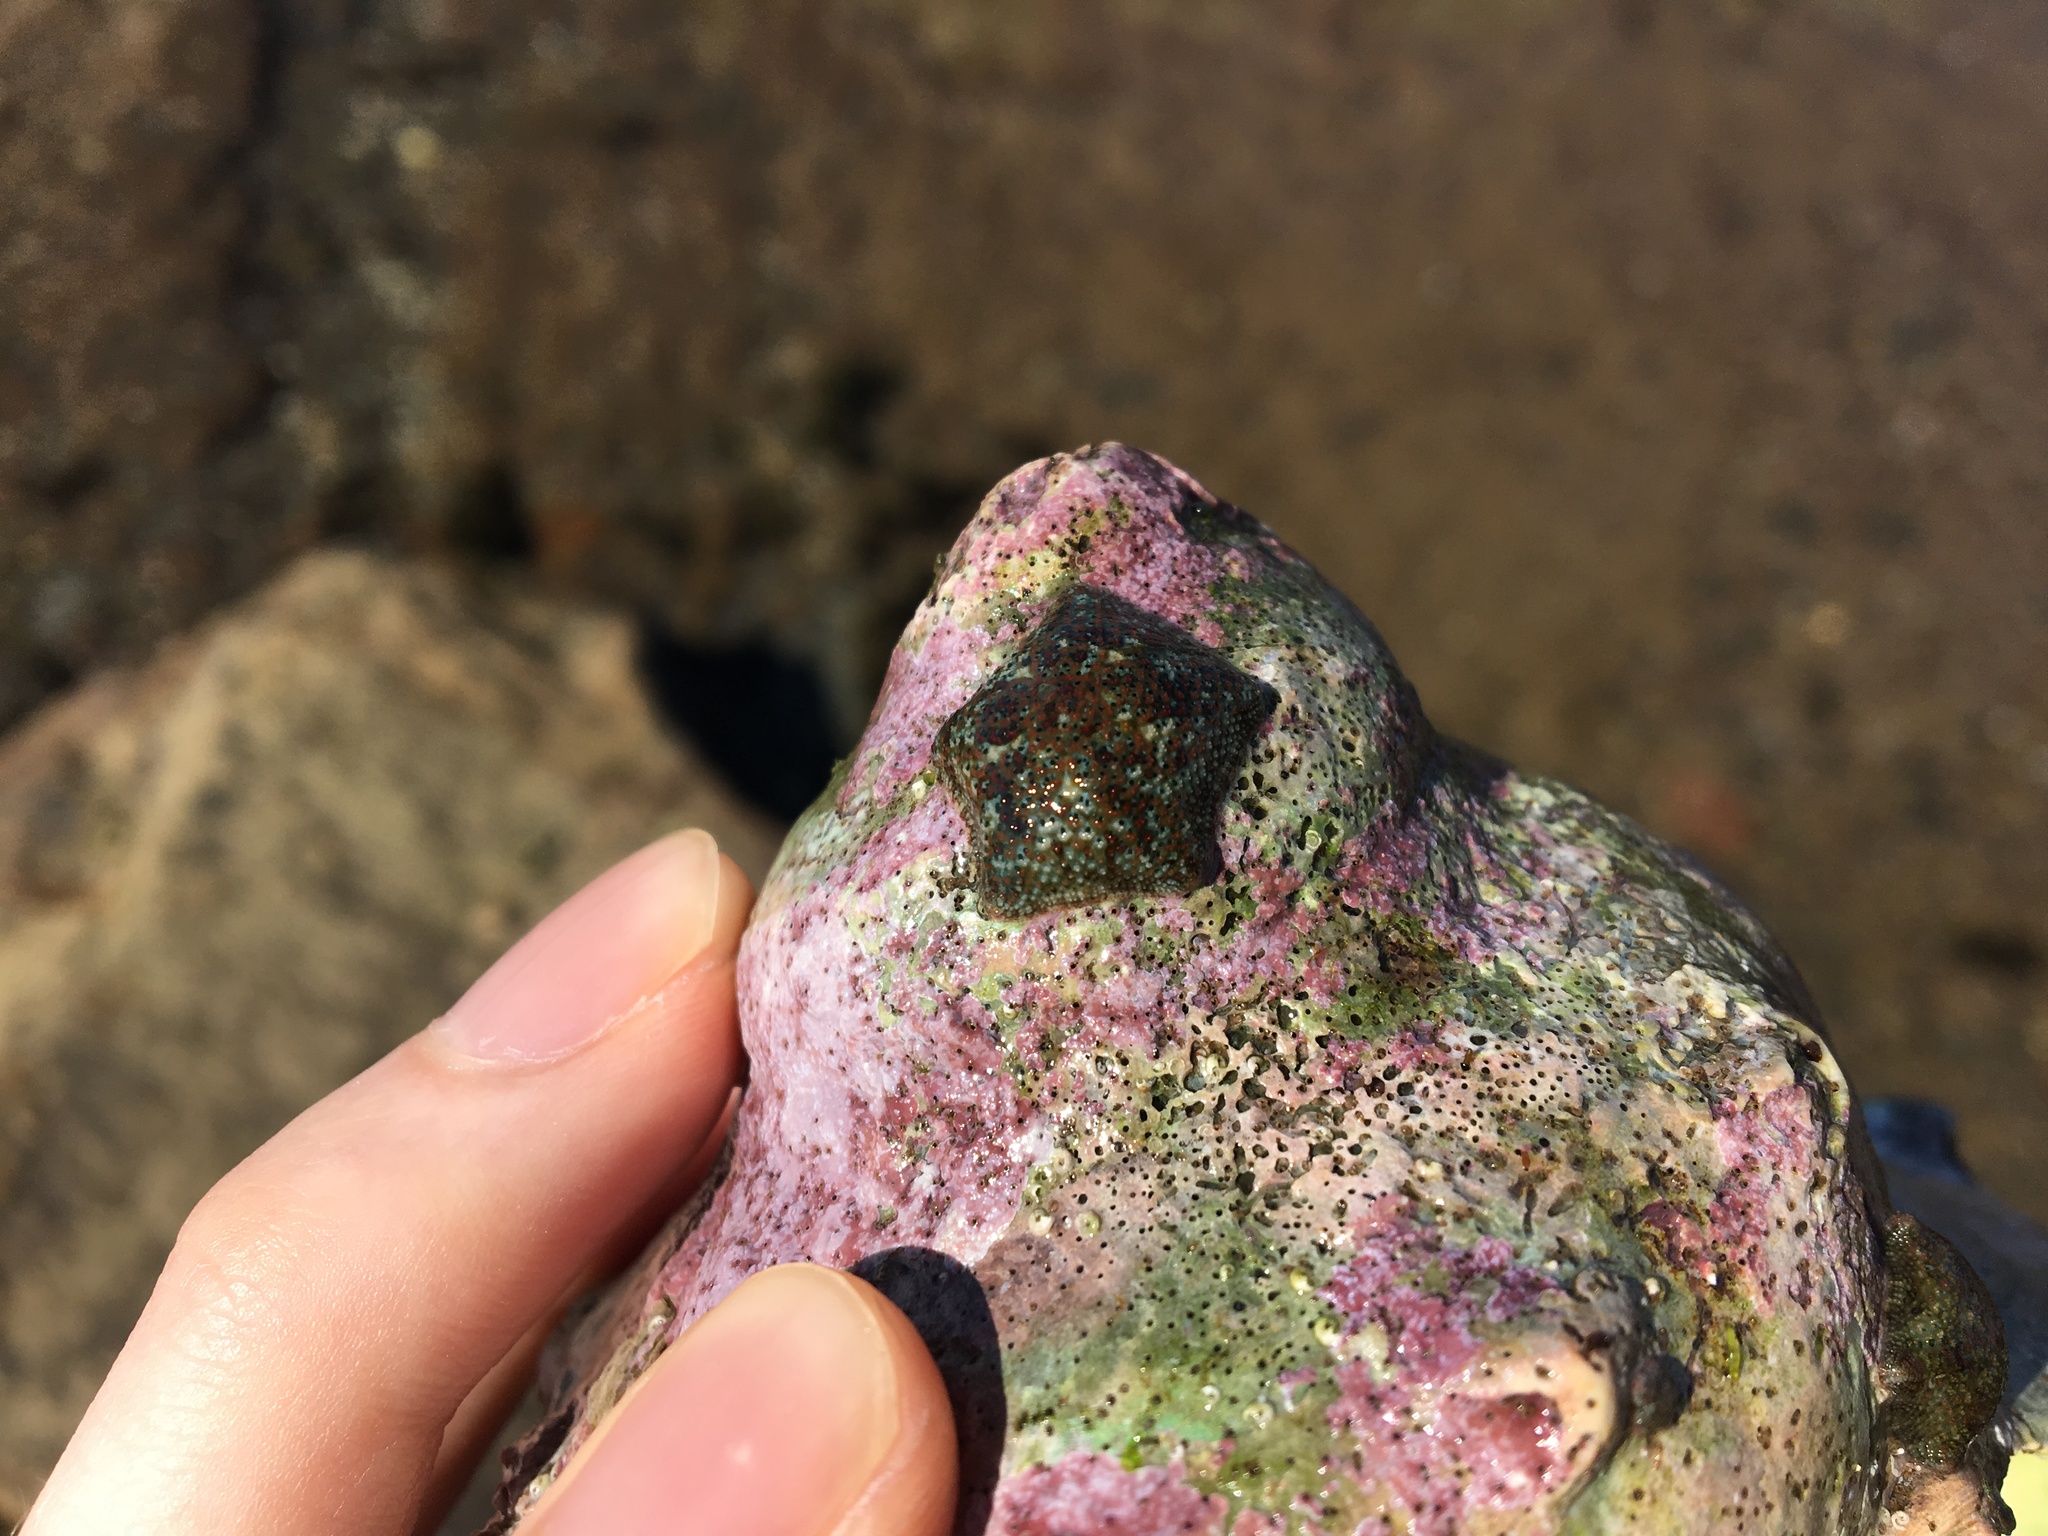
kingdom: Animalia
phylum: Echinodermata
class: Asteroidea
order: Valvatida
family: Asterinidae
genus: Parvulastra
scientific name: Parvulastra exigua
